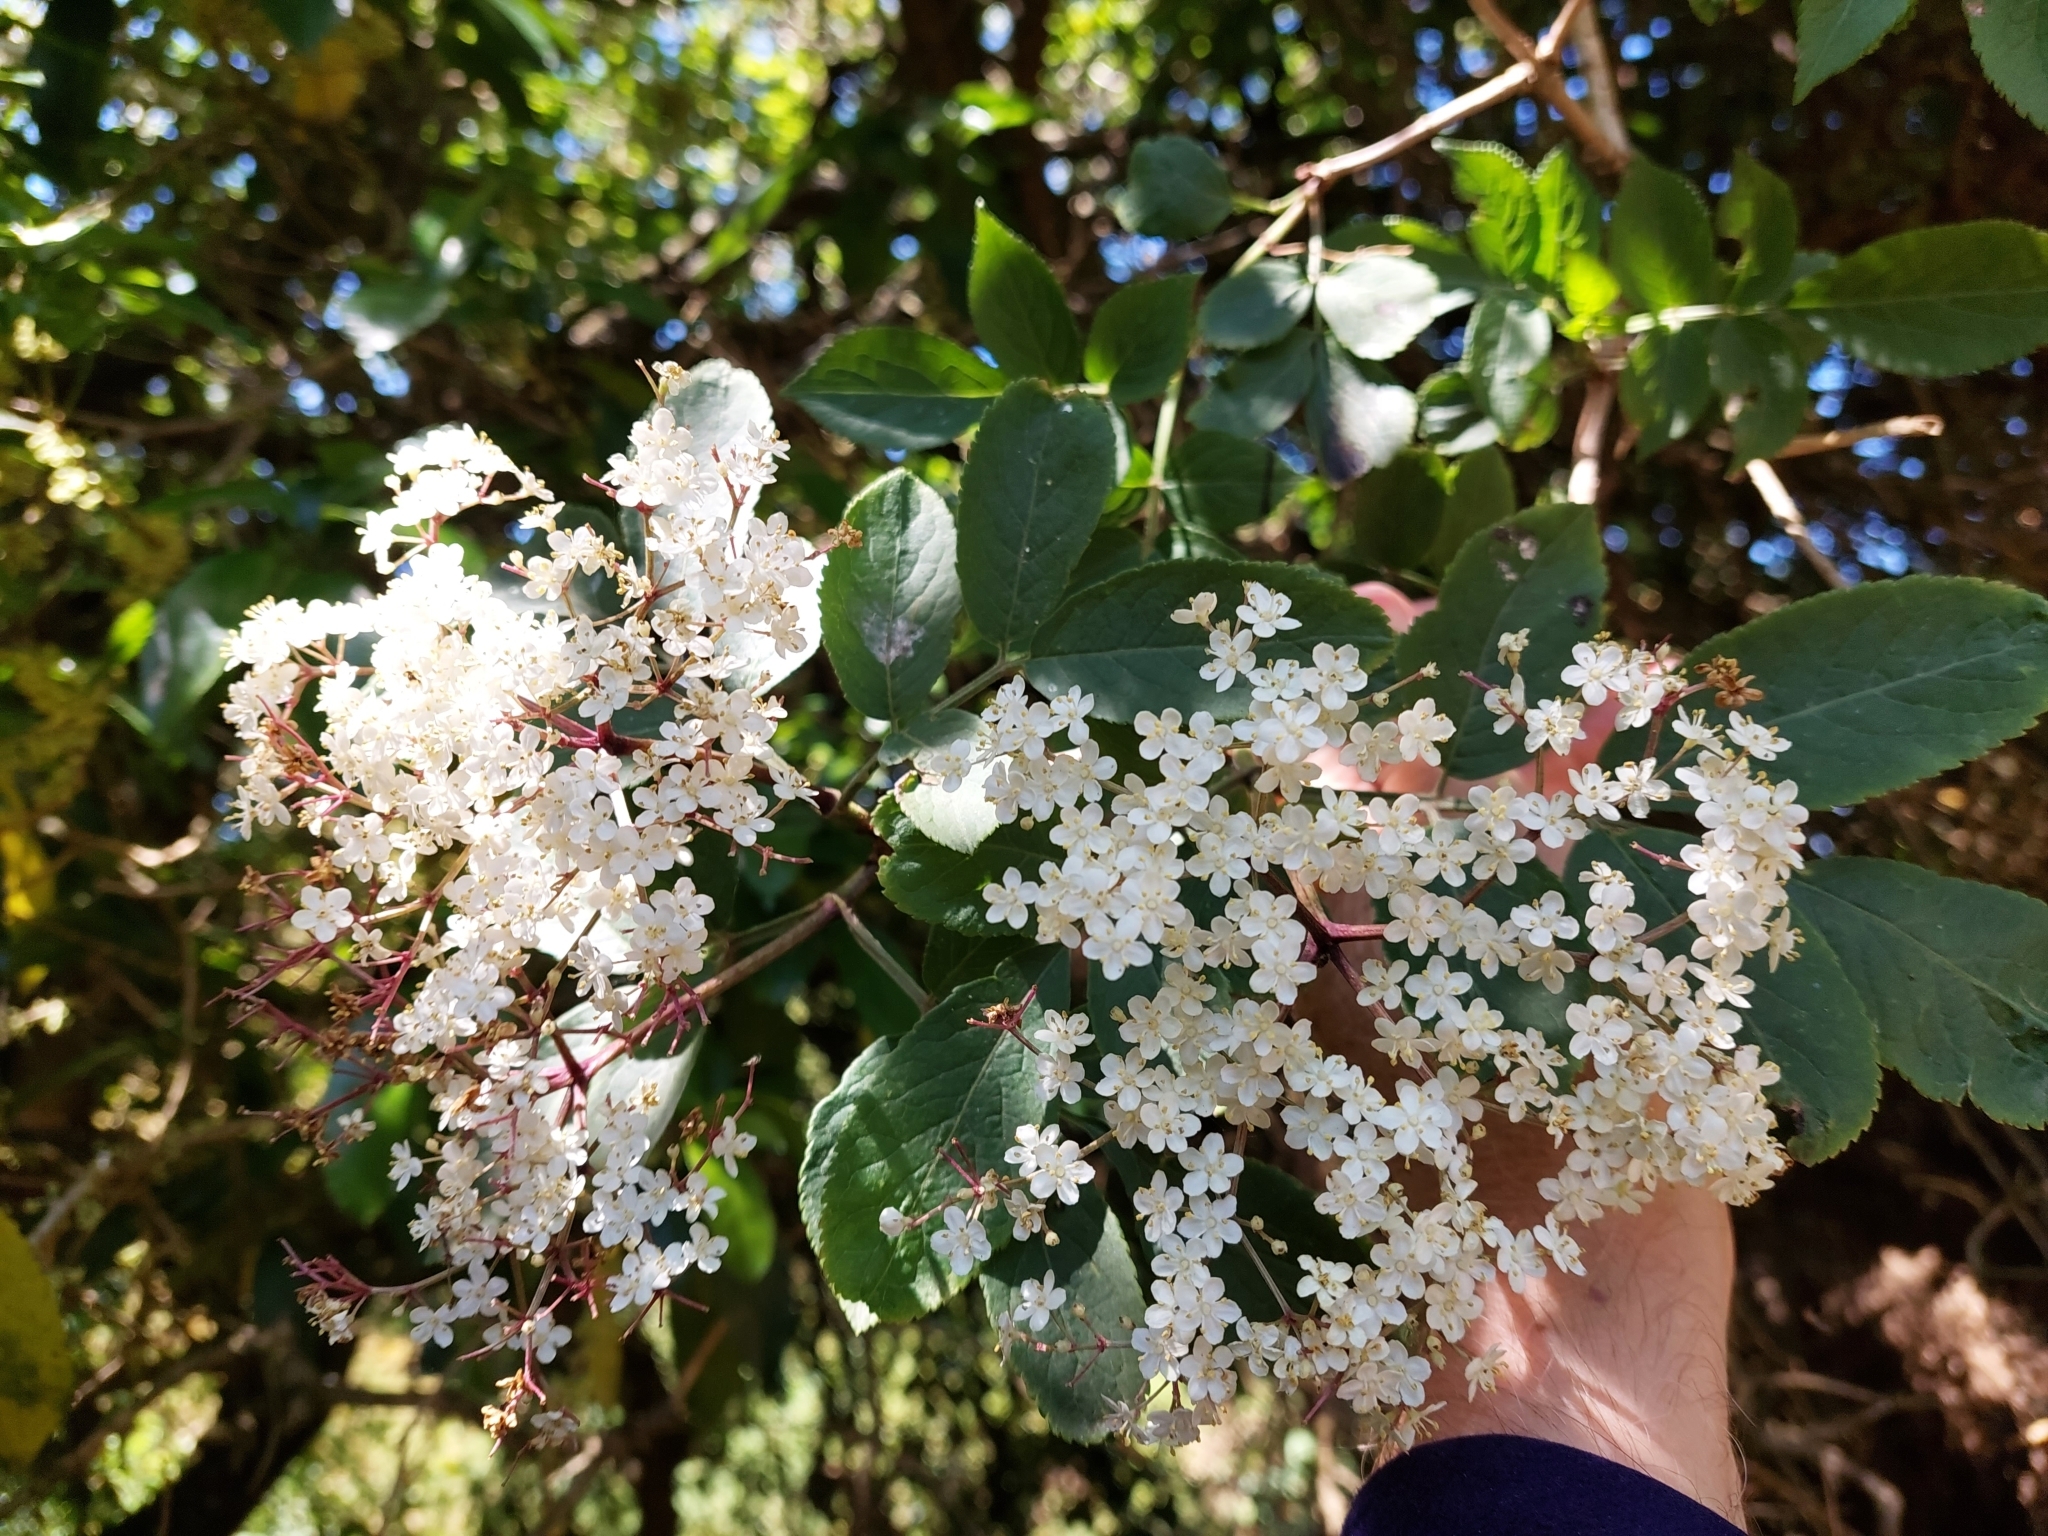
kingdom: Plantae
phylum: Tracheophyta
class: Magnoliopsida
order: Dipsacales
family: Viburnaceae
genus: Sambucus
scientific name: Sambucus nigra
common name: Elder
